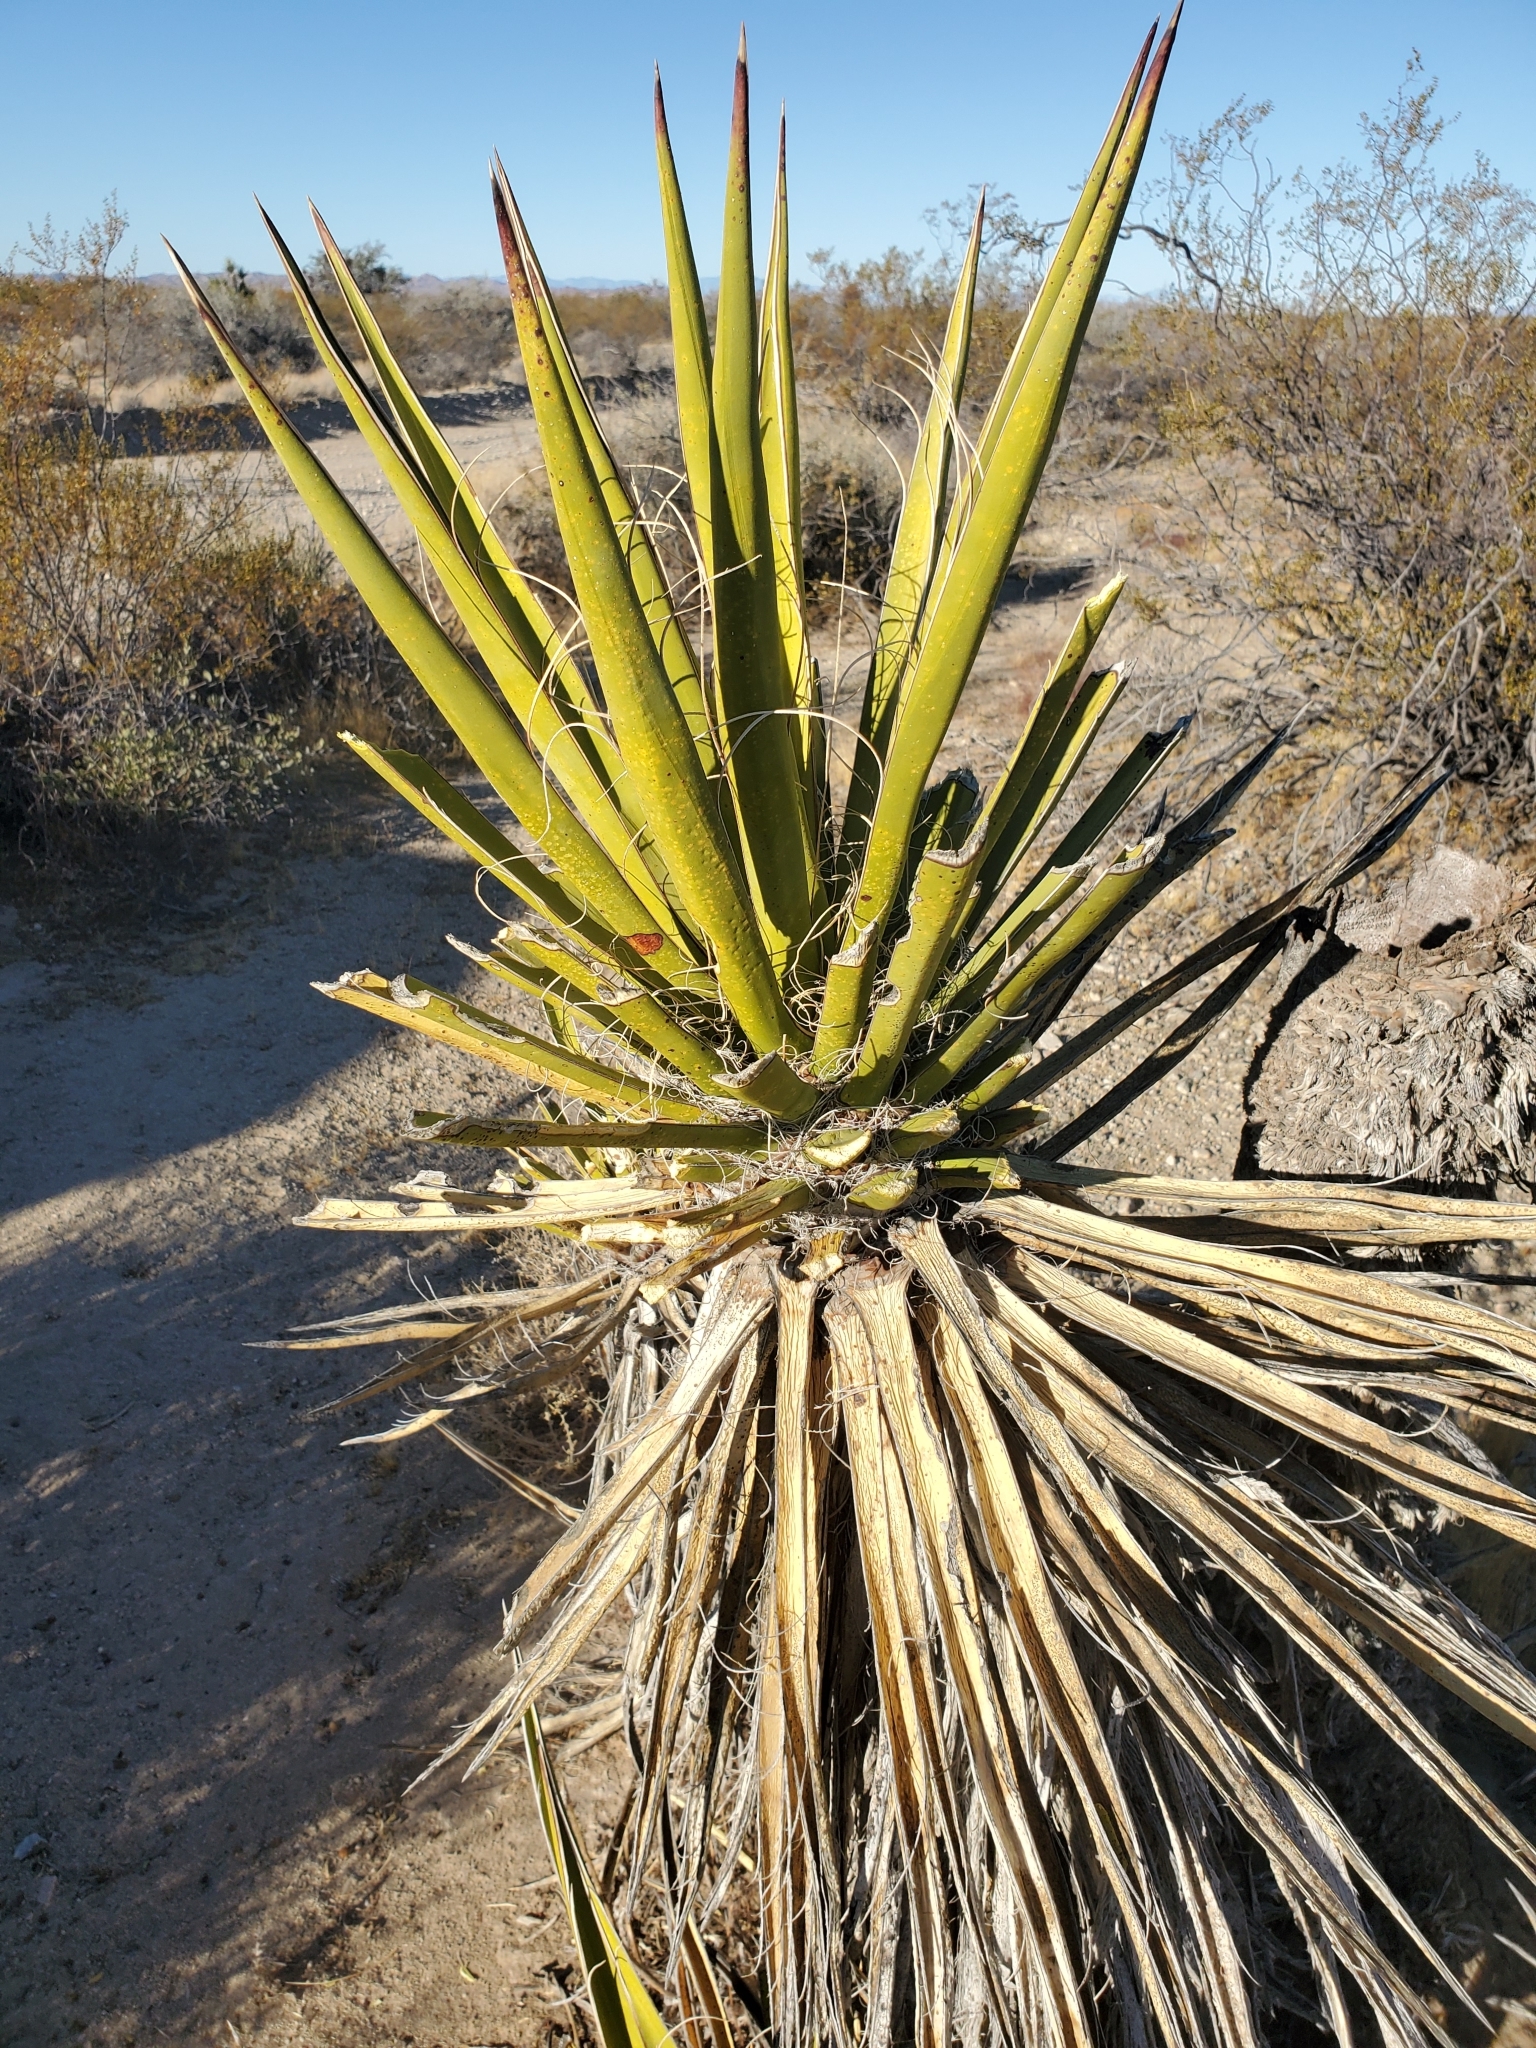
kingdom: Plantae
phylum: Tracheophyta
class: Liliopsida
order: Asparagales
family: Asparagaceae
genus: Yucca
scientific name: Yucca schidigera
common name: Mojave yucca
